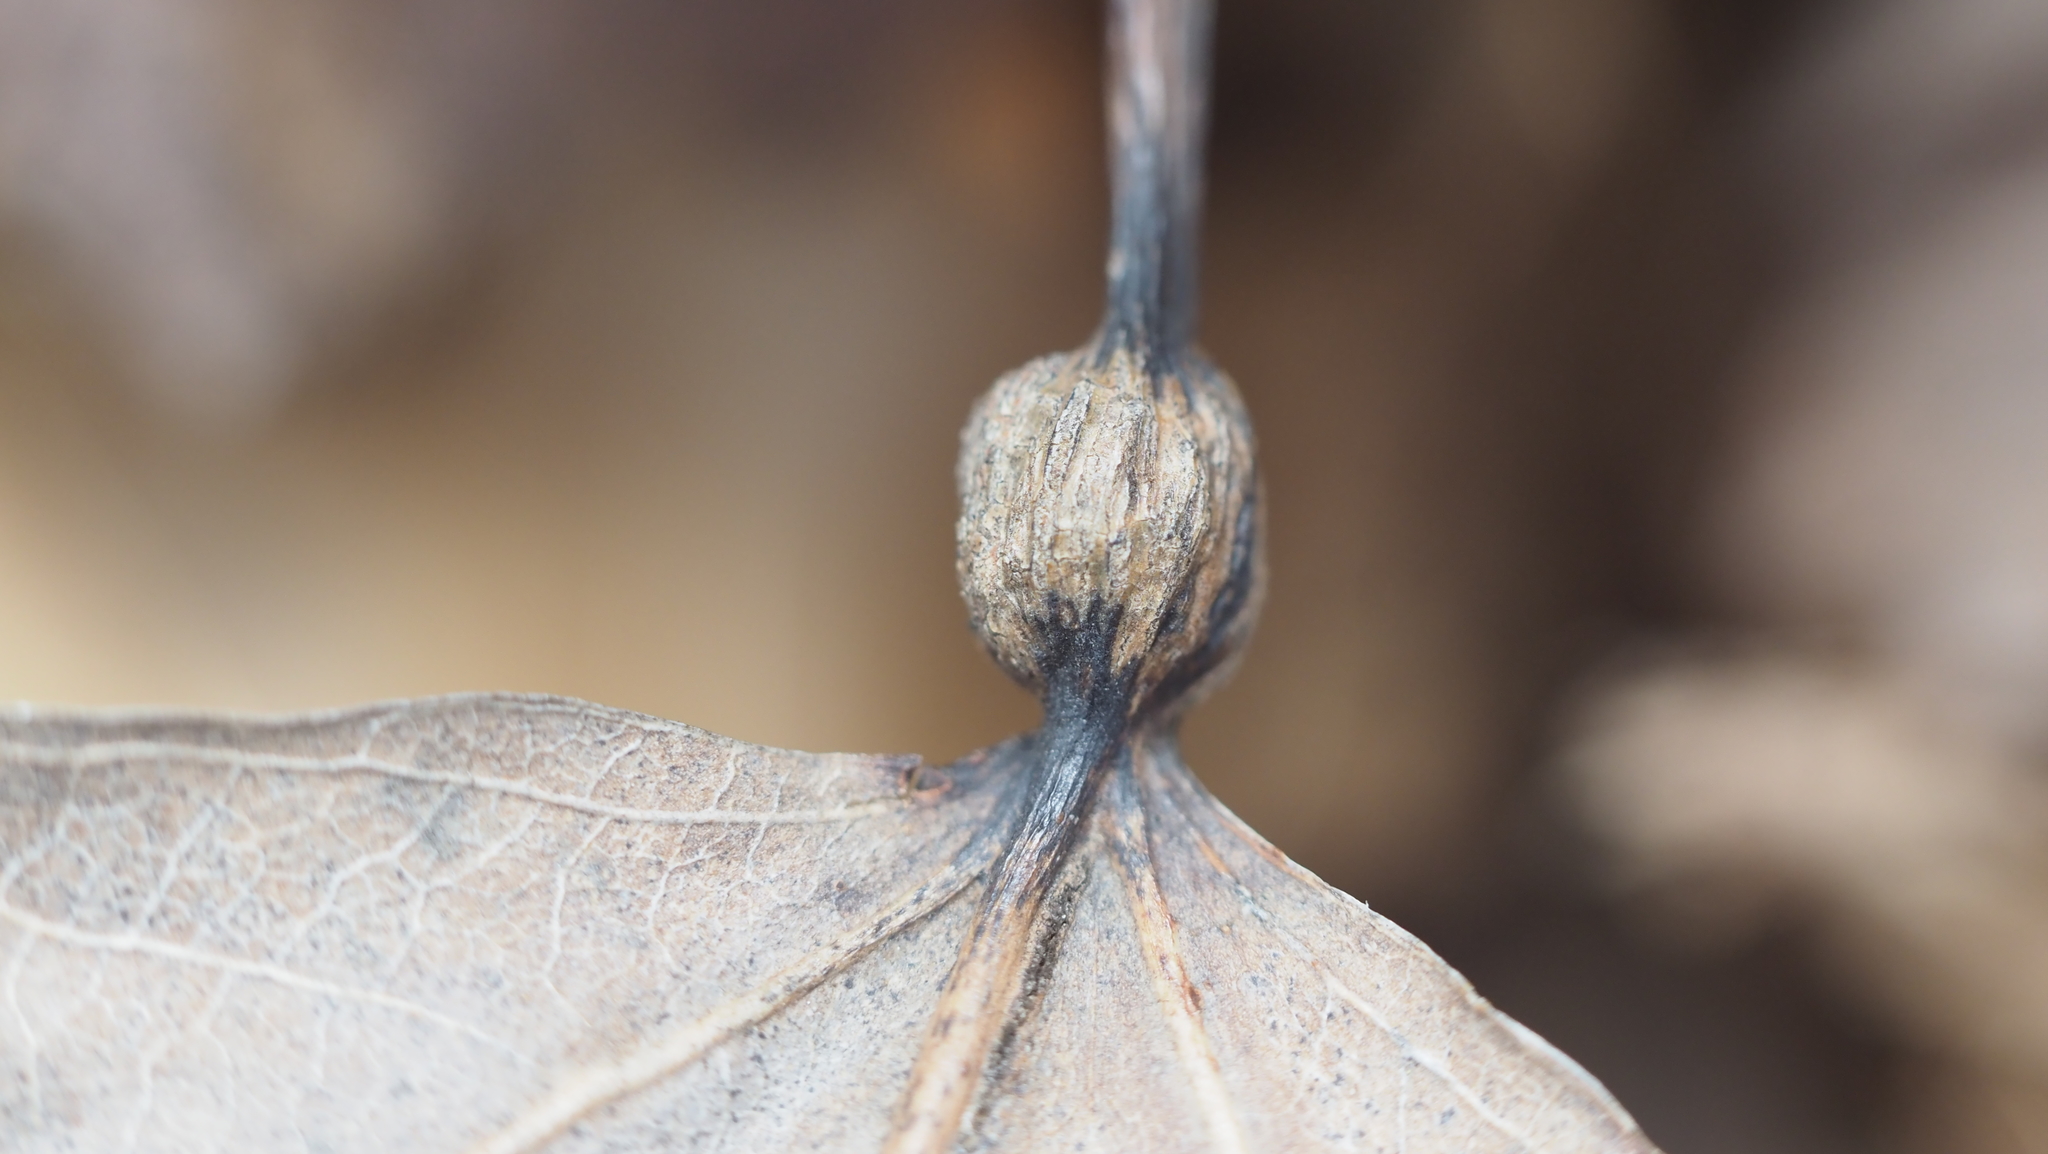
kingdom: Animalia
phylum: Arthropoda
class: Insecta
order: Lepidoptera
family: Nepticulidae
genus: Ectoedemia
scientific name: Ectoedemia populella
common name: Aspen petiole gall moth
